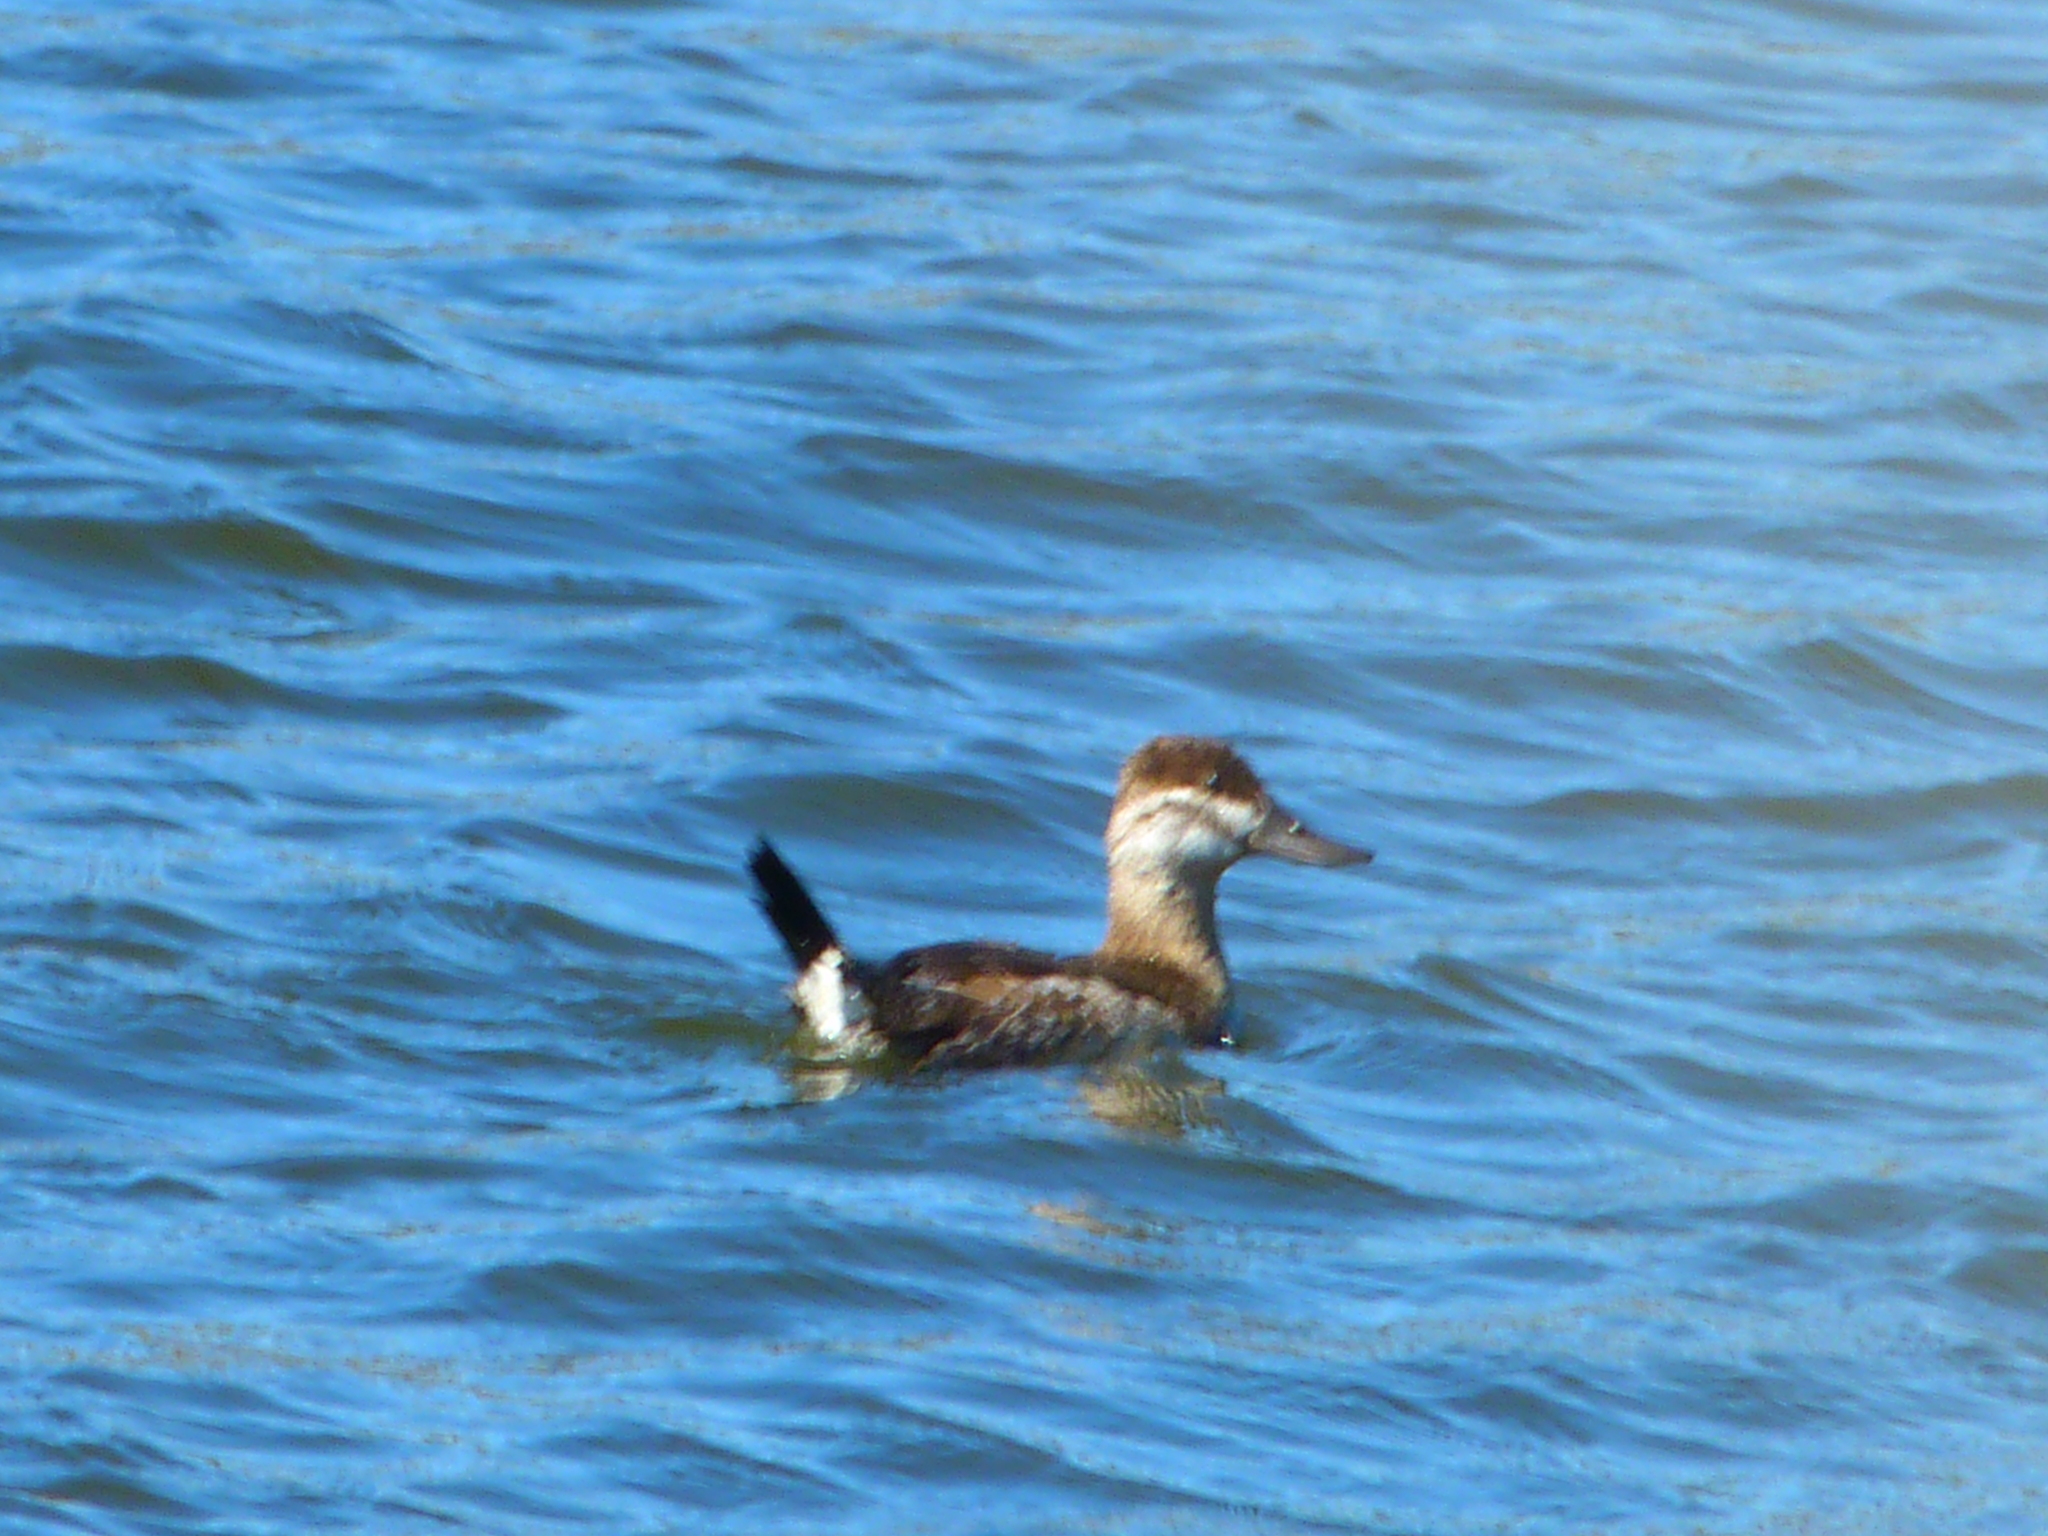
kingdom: Animalia
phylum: Chordata
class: Aves
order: Anseriformes
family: Anatidae
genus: Oxyura
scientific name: Oxyura jamaicensis
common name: Ruddy duck
